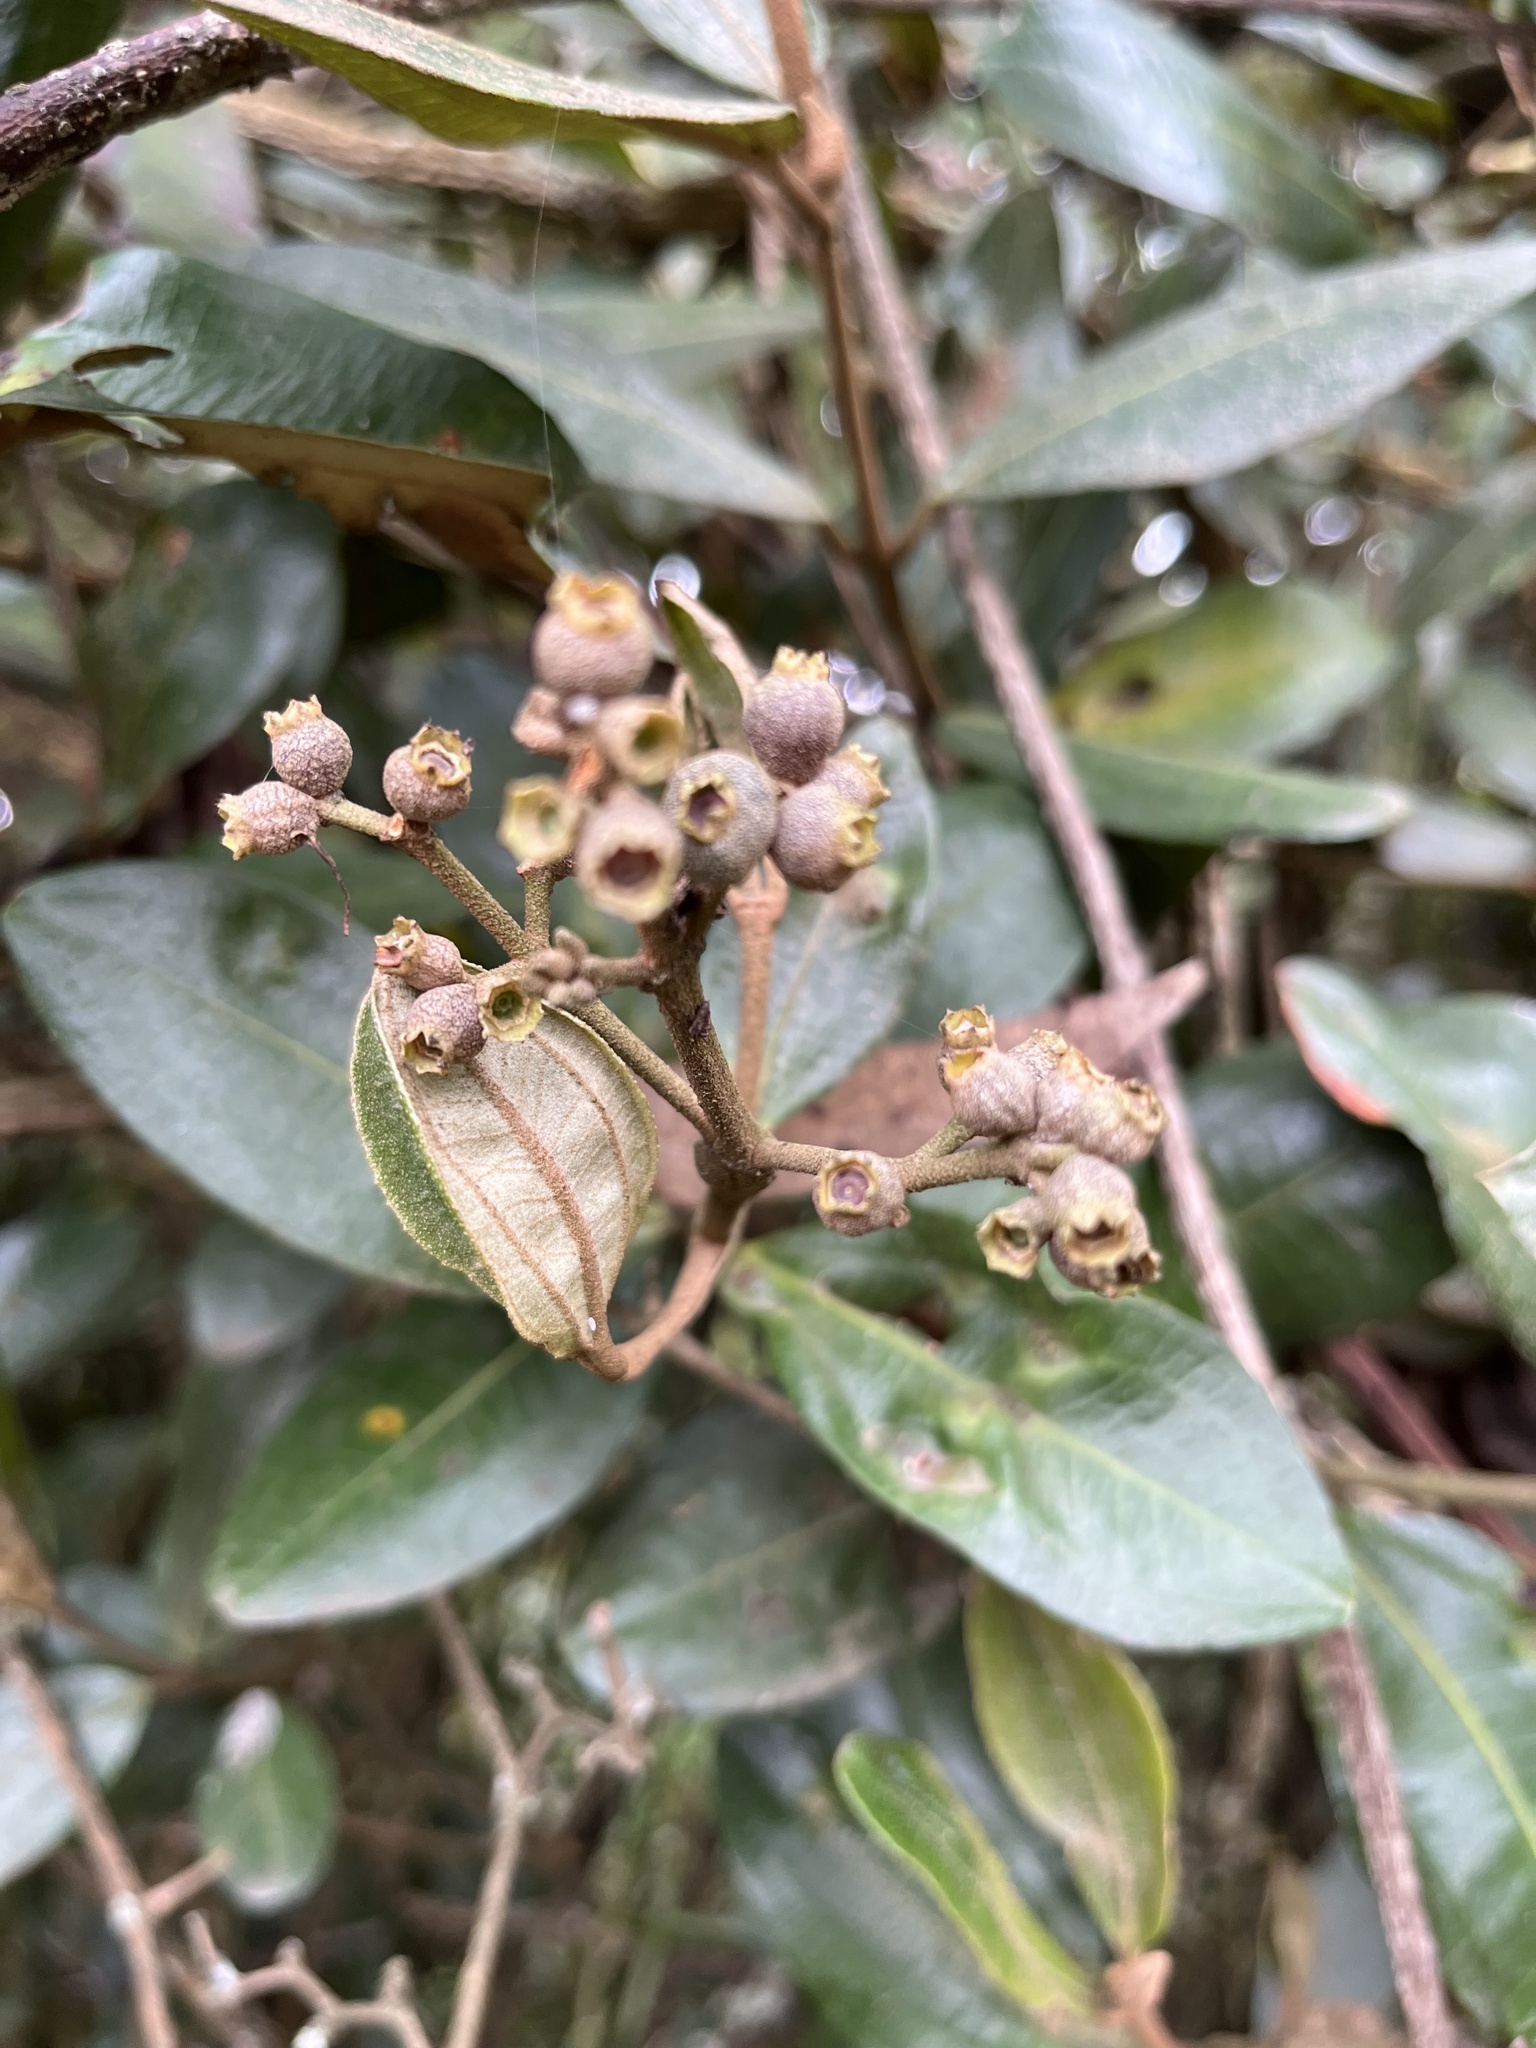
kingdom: Plantae
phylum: Tracheophyta
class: Magnoliopsida
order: Myrtales
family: Melastomataceae
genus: Miconia
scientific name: Miconia squamulosa
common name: Squamulose maya
